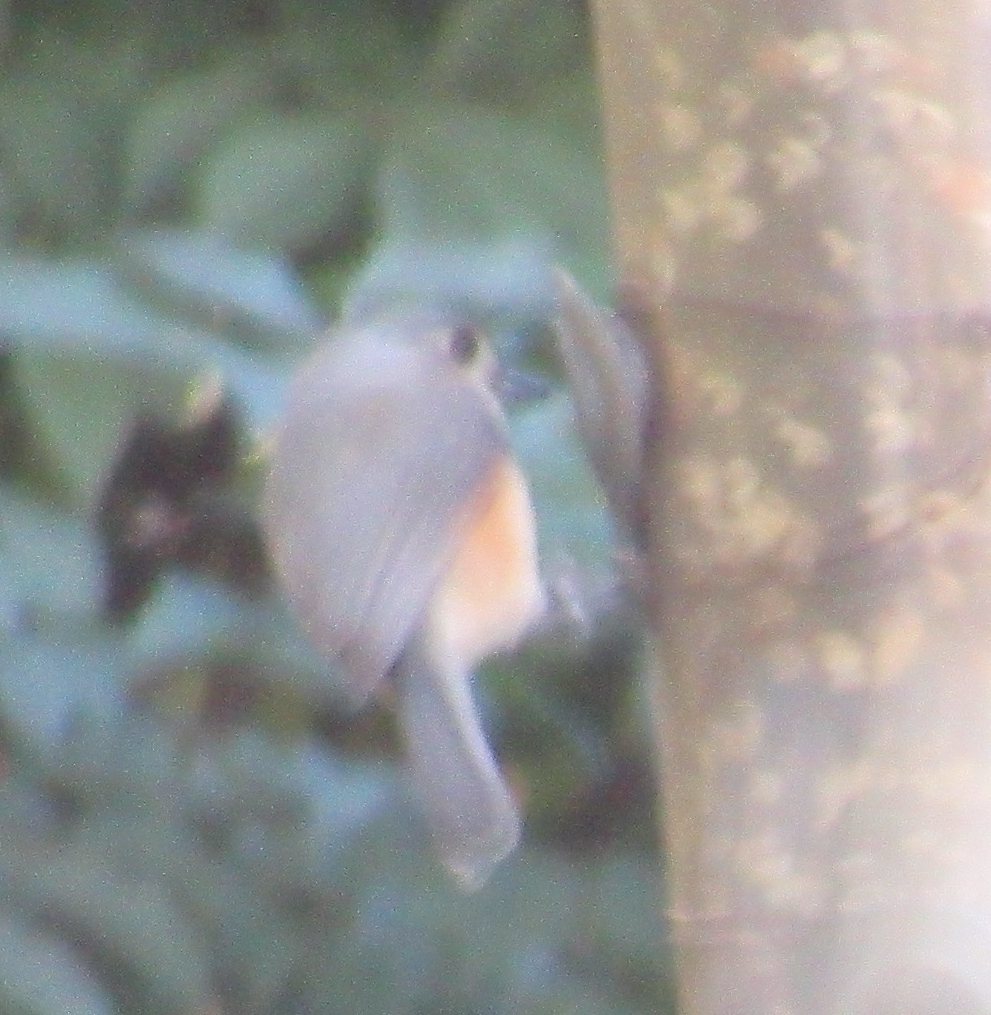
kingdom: Animalia
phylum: Chordata
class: Aves
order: Passeriformes
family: Paridae
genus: Baeolophus
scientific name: Baeolophus bicolor
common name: Tufted titmouse
